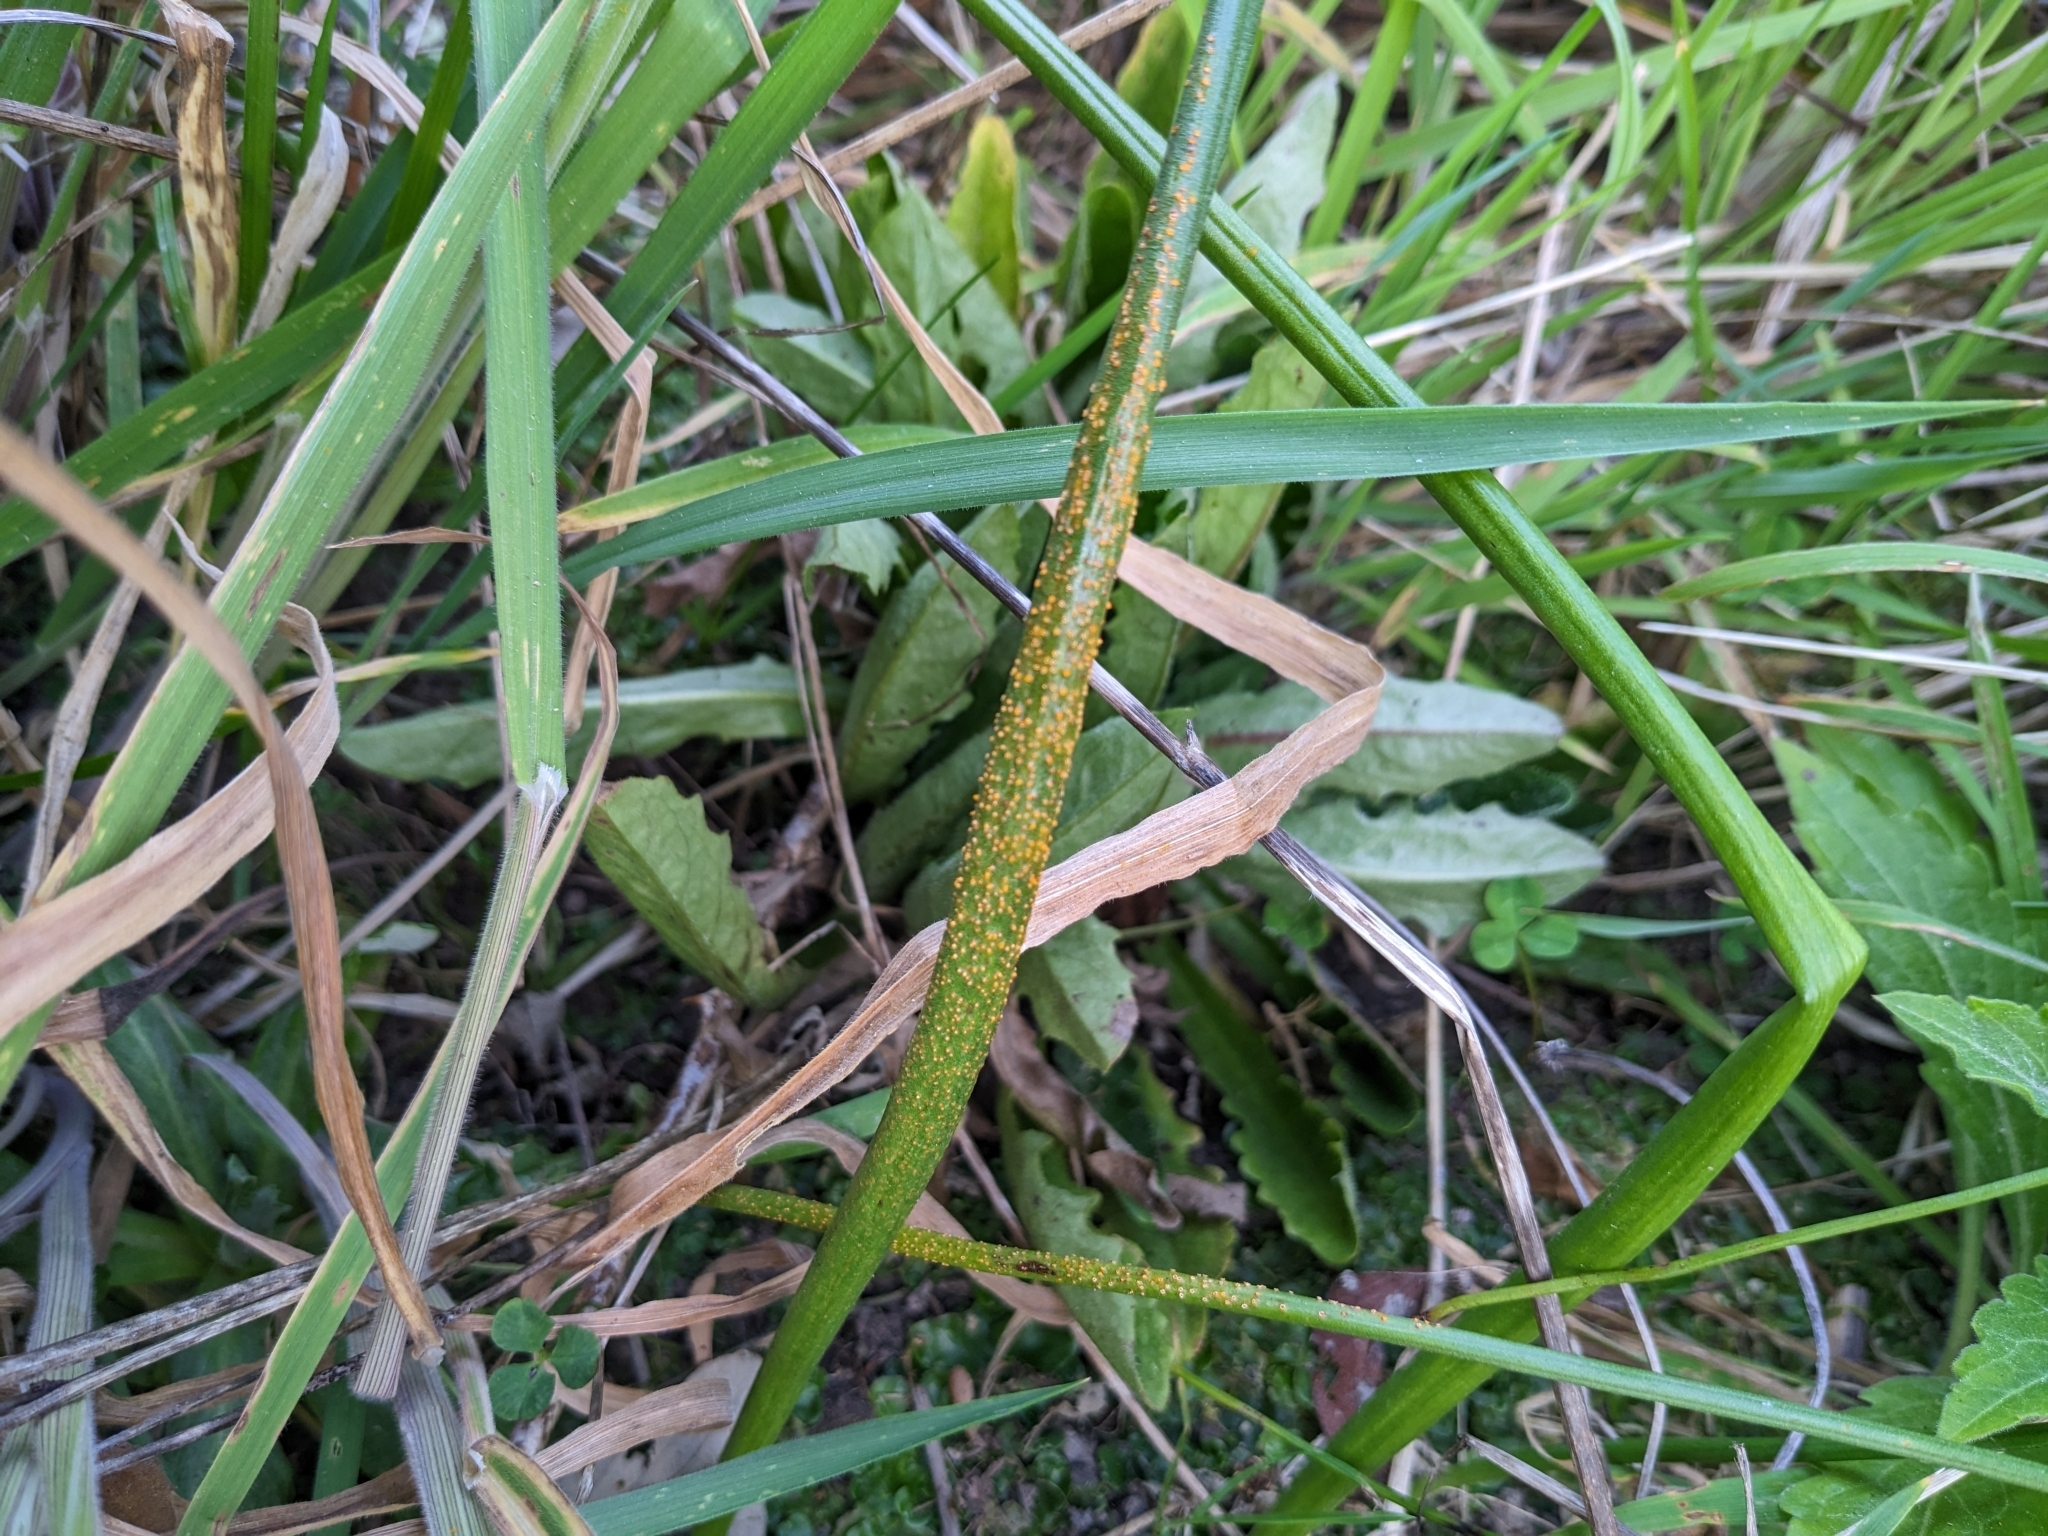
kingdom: Fungi
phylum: Basidiomycota
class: Pucciniomycetes
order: Pucciniales
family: Pucciniaceae
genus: Uromyces
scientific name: Uromyces microtidis
